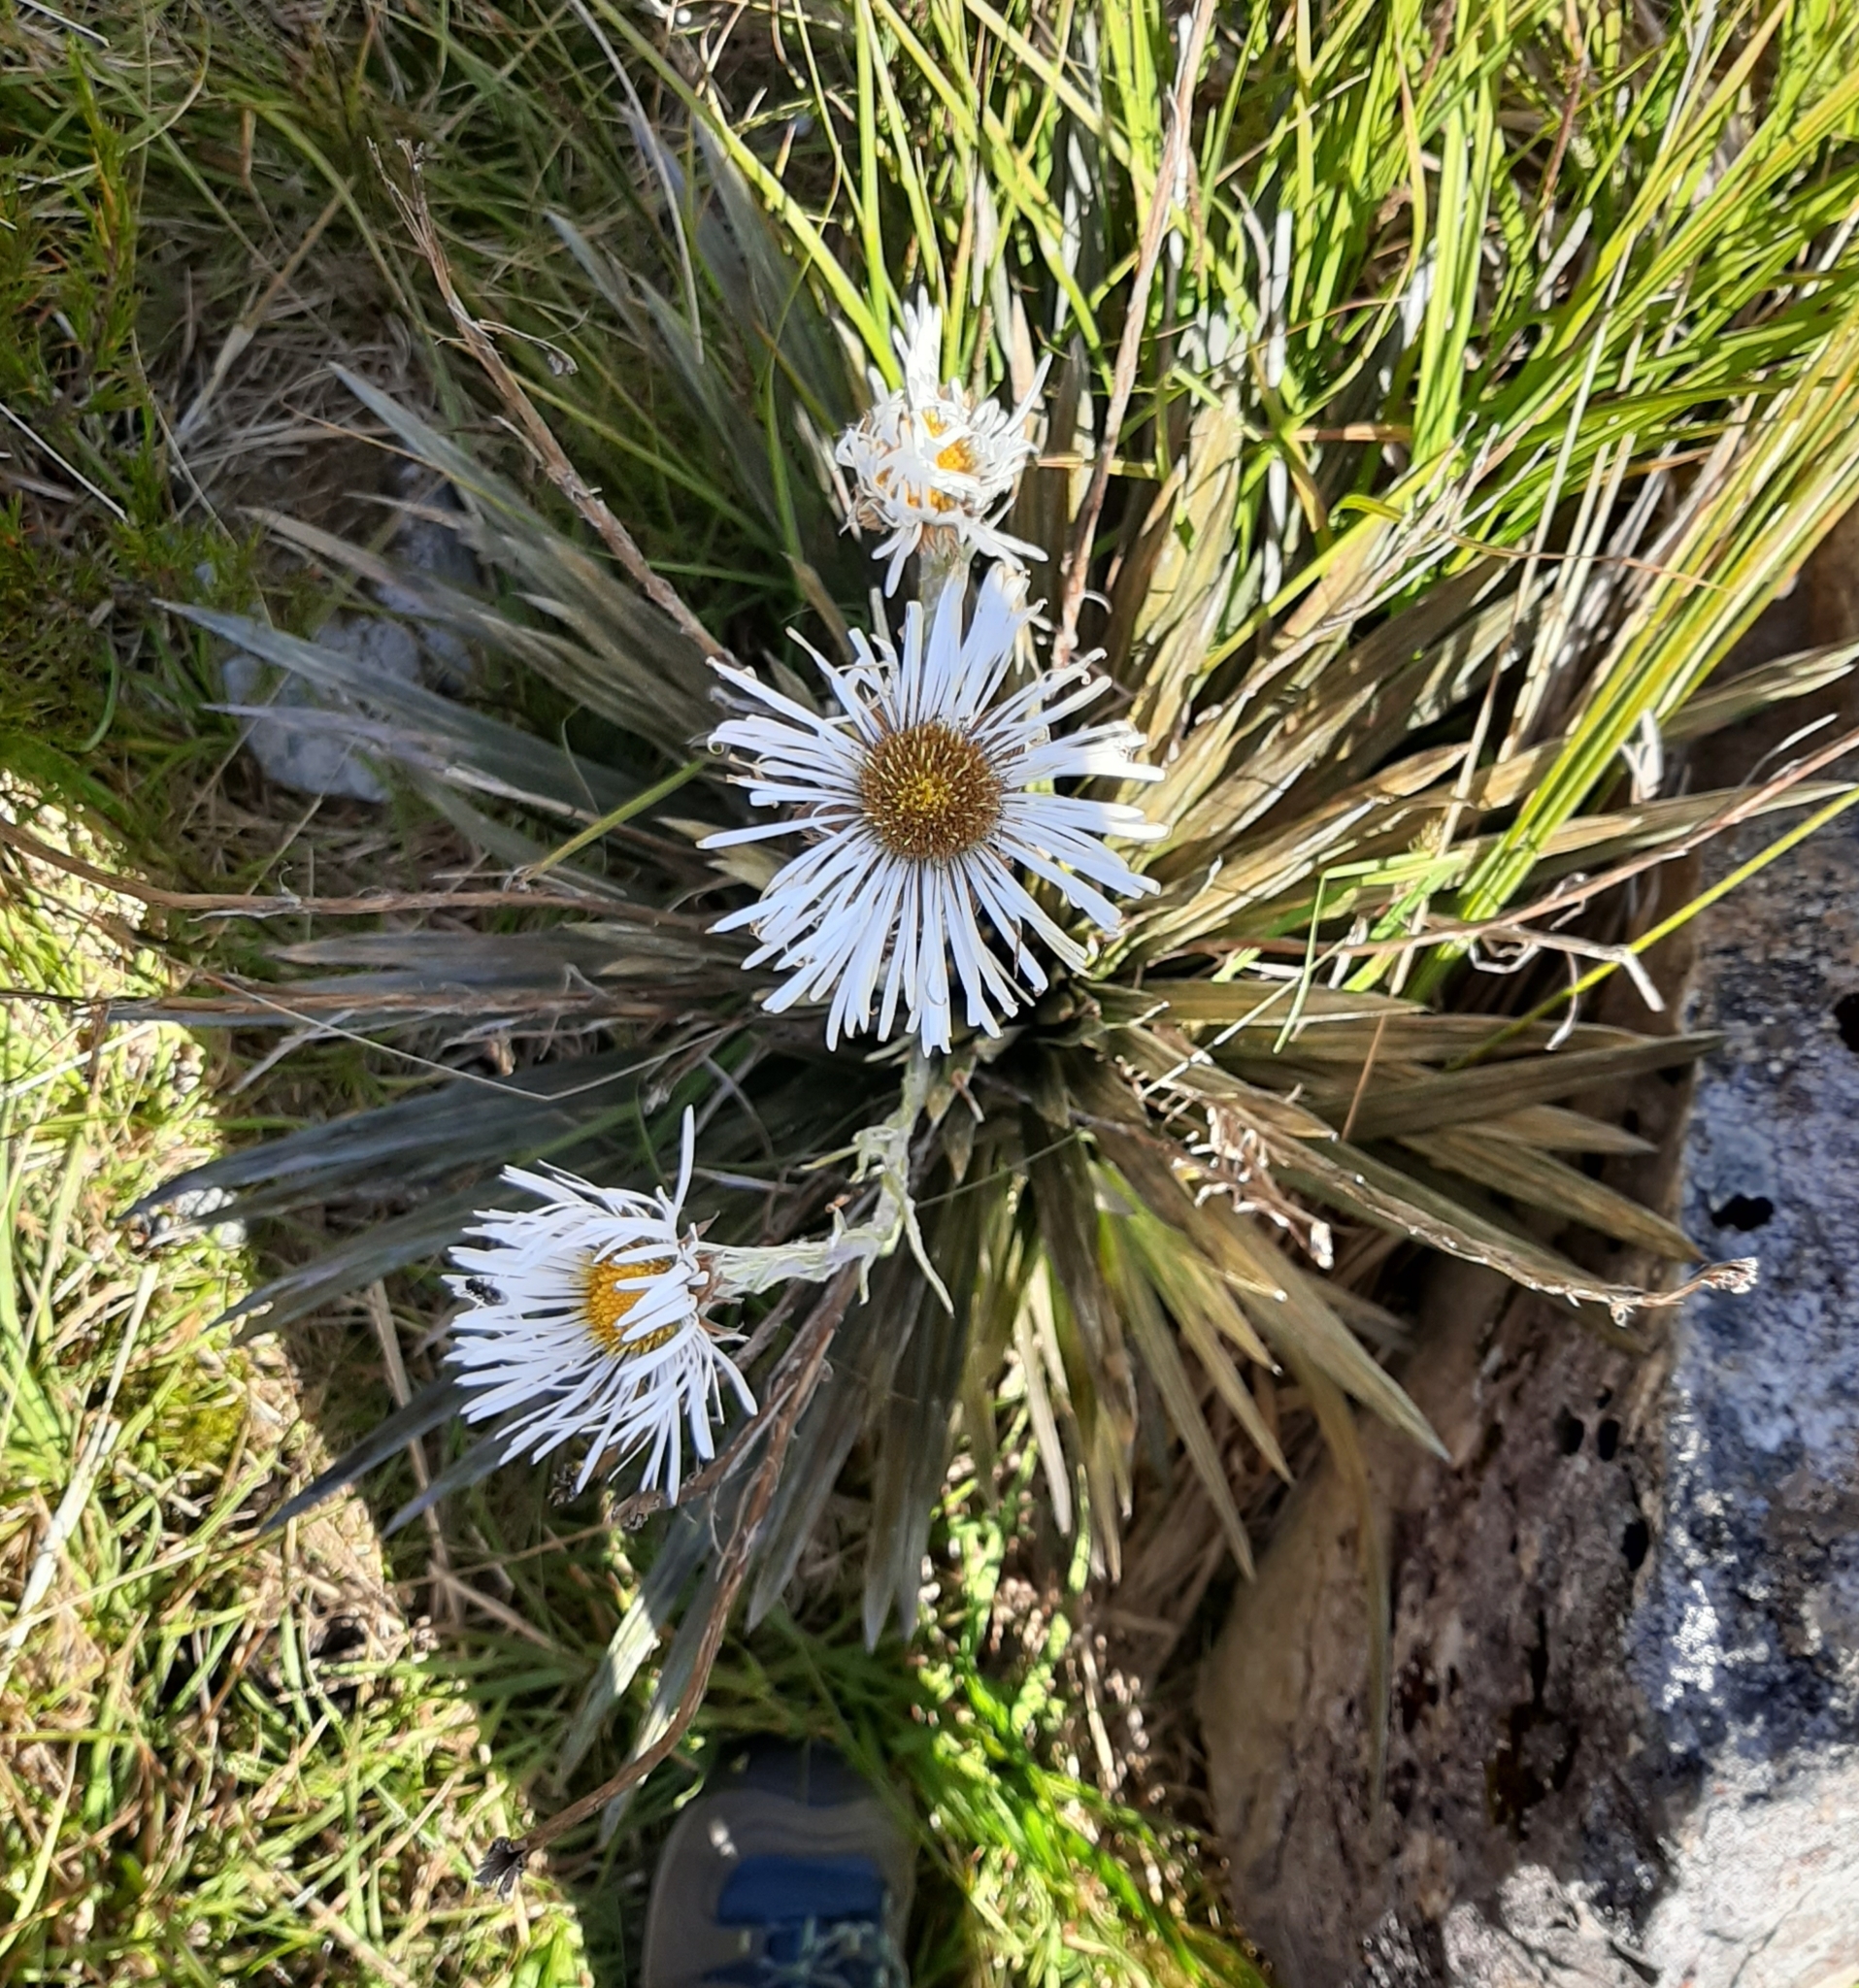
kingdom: Plantae
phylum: Tracheophyta
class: Magnoliopsida
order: Asterales
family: Asteraceae
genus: Celmisia
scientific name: Celmisia armstrongii
